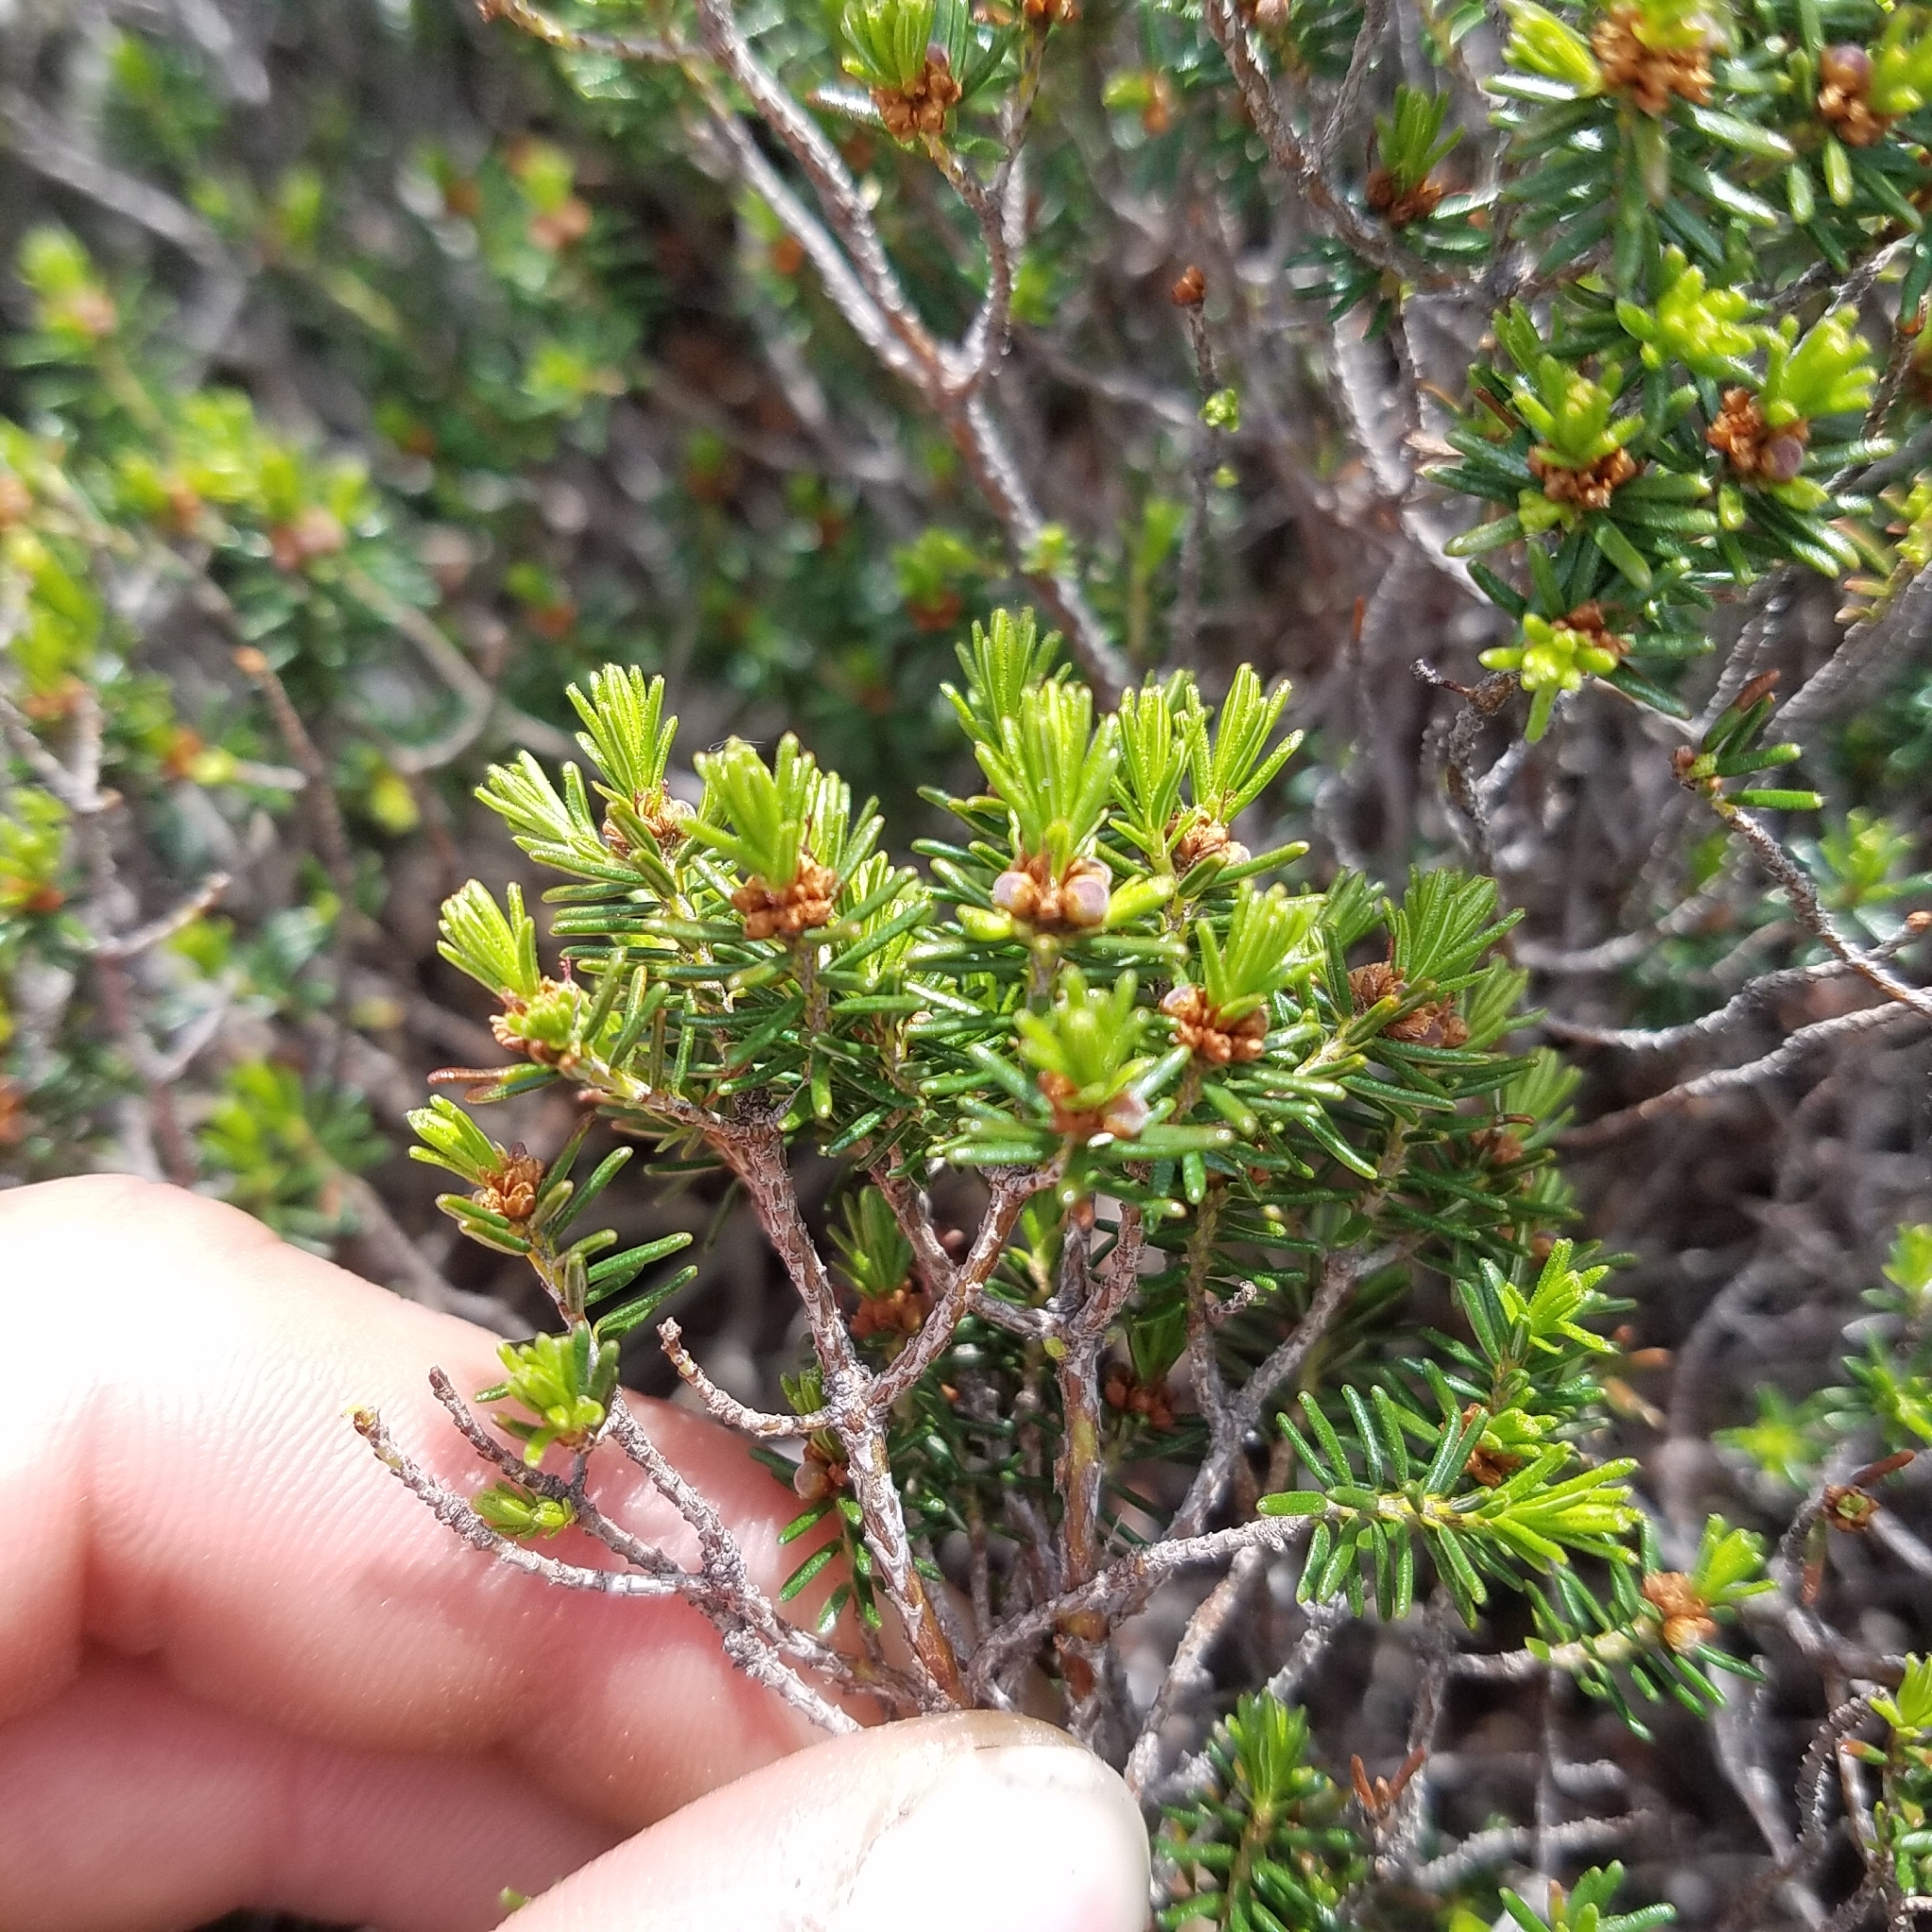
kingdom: Plantae
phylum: Tracheophyta
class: Magnoliopsida
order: Ericales
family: Ericaceae
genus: Corema
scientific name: Corema conradii
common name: Broom-crowberry
